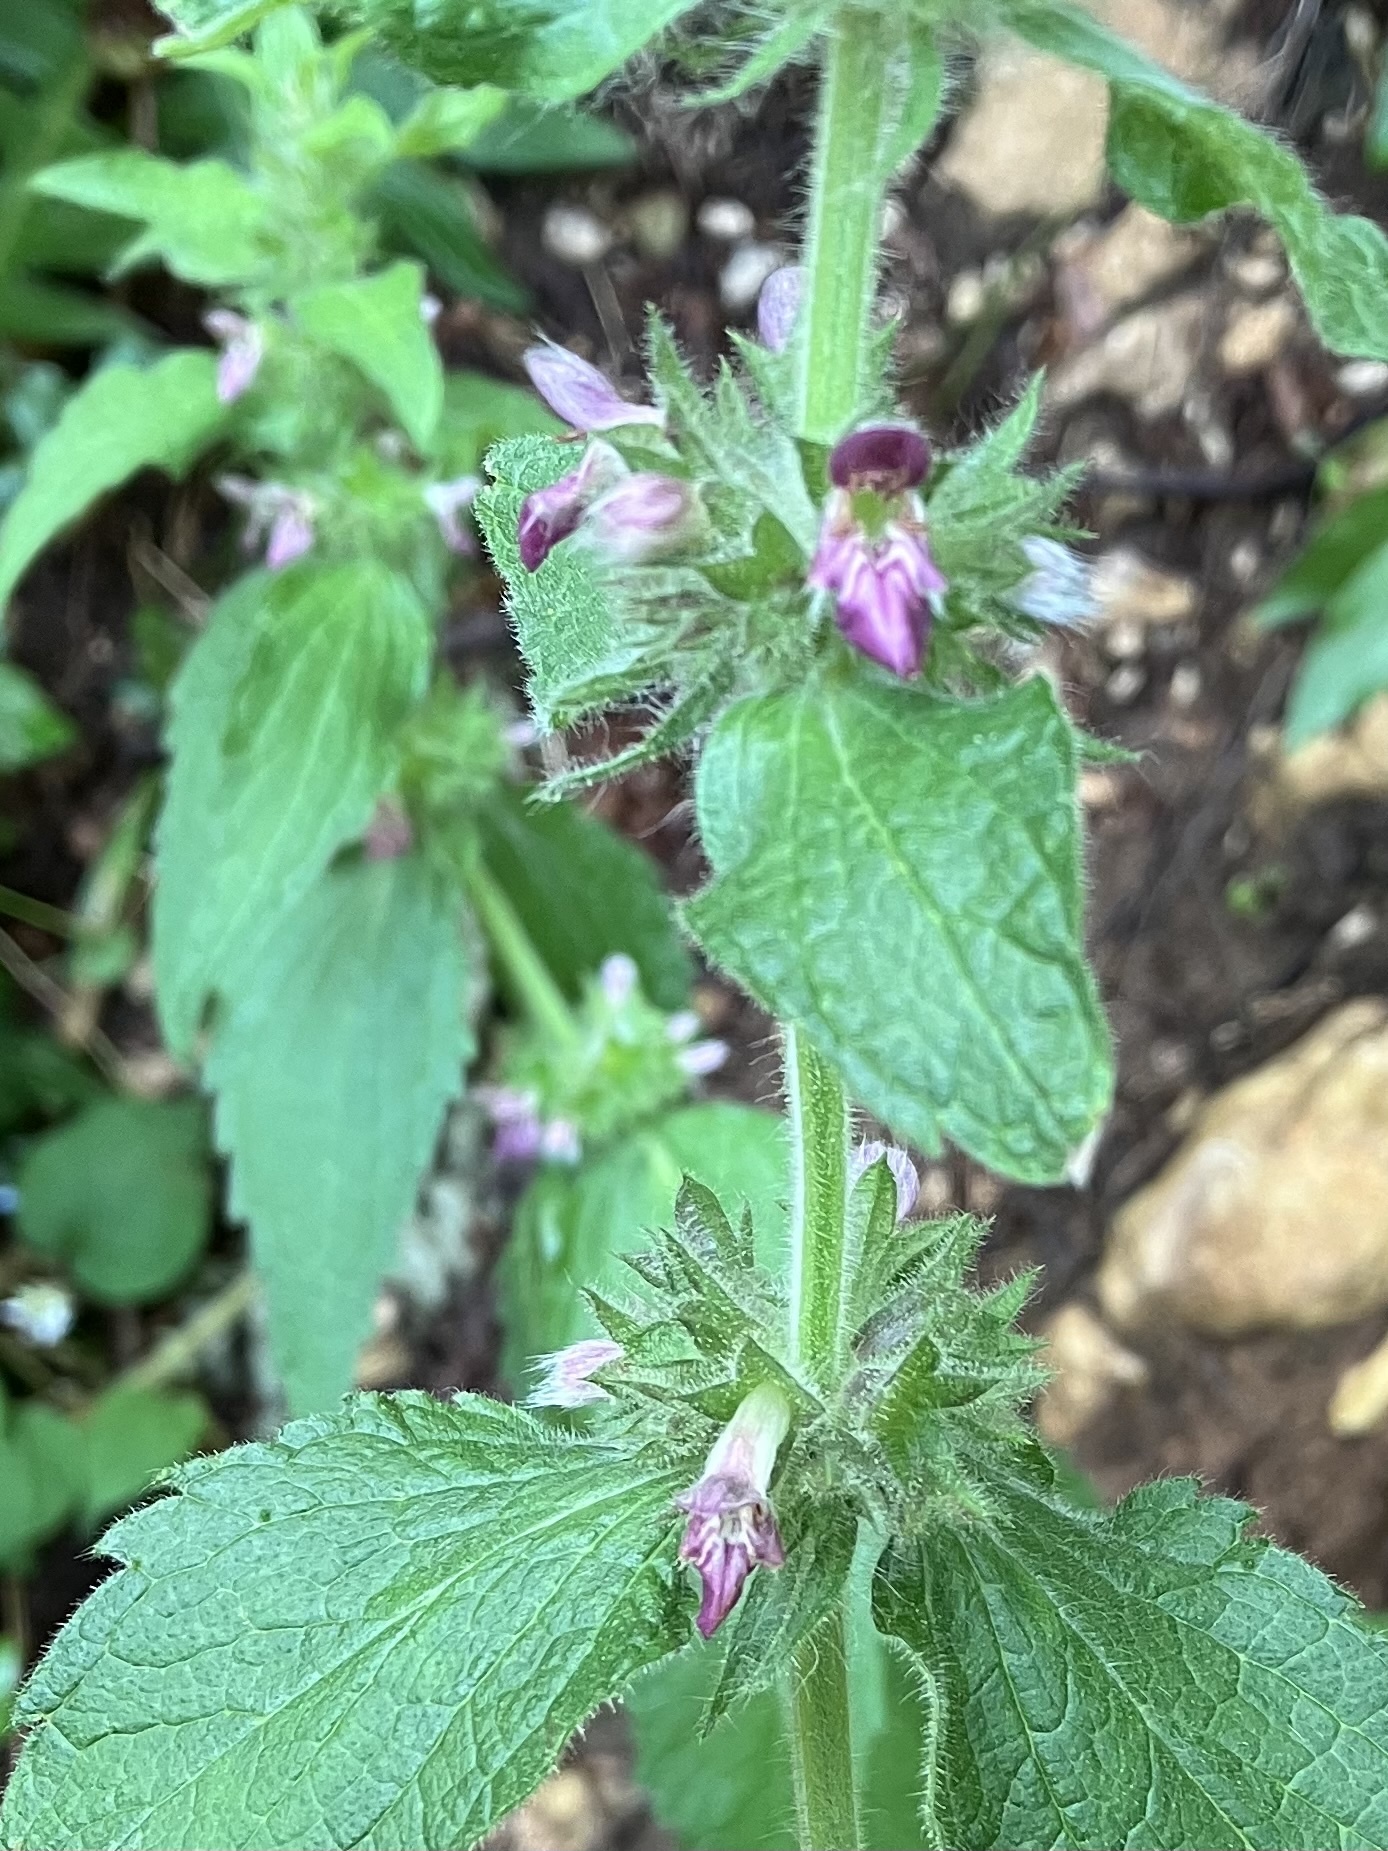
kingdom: Plantae
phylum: Tracheophyta
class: Magnoliopsida
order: Lamiales
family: Lamiaceae
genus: Stachys
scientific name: Stachys alpina
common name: Limestone woundwort
